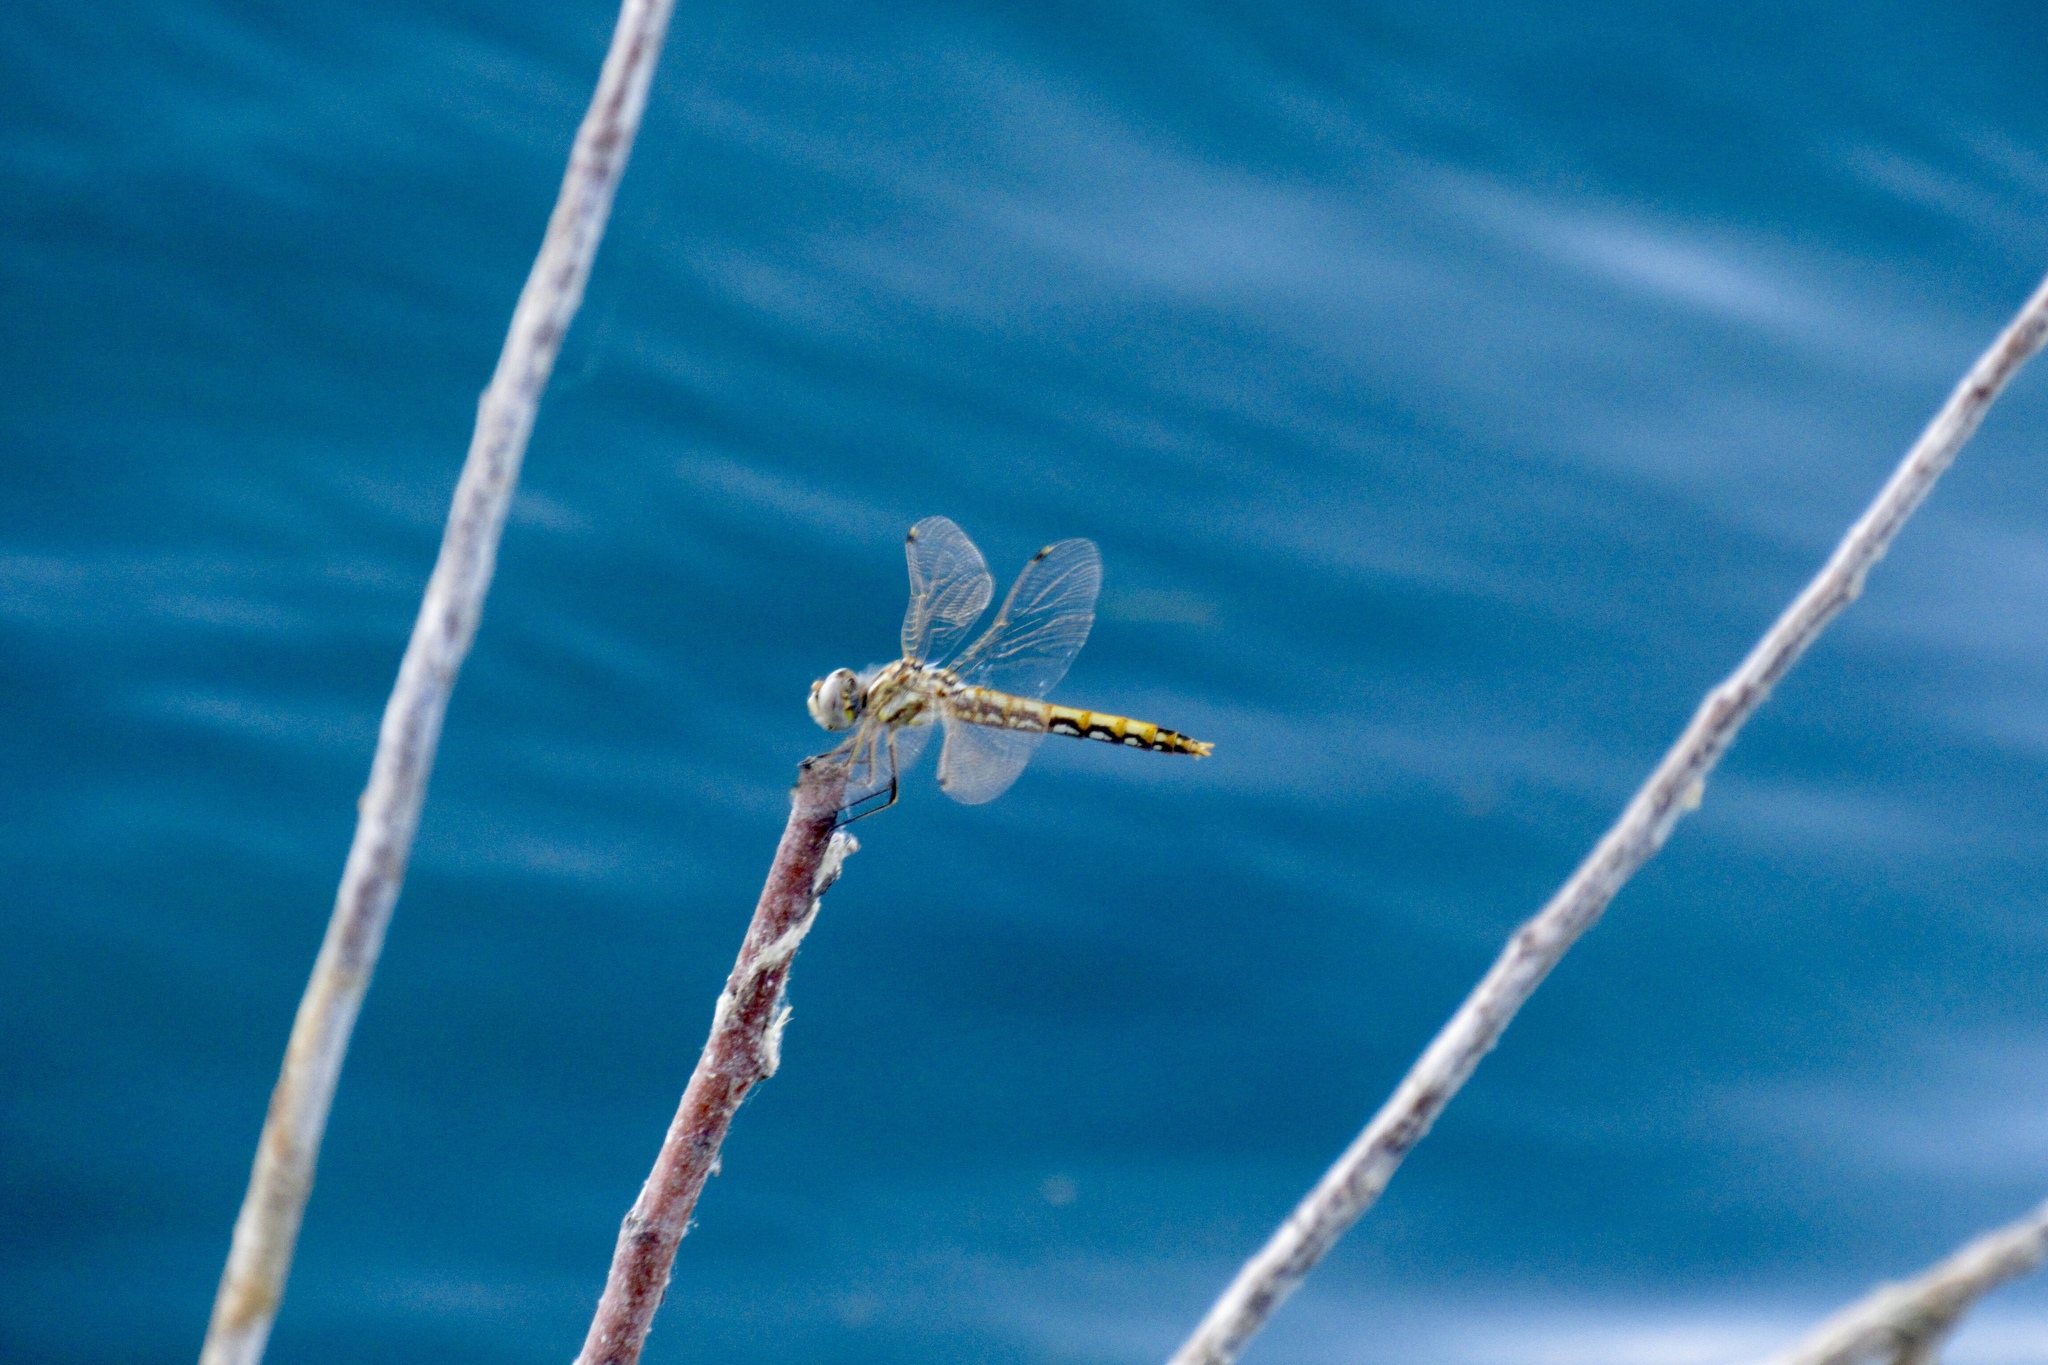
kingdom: Animalia
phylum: Arthropoda
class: Insecta
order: Odonata
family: Libellulidae
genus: Sympetrum
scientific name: Sympetrum corruptum
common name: Variegated meadowhawk
